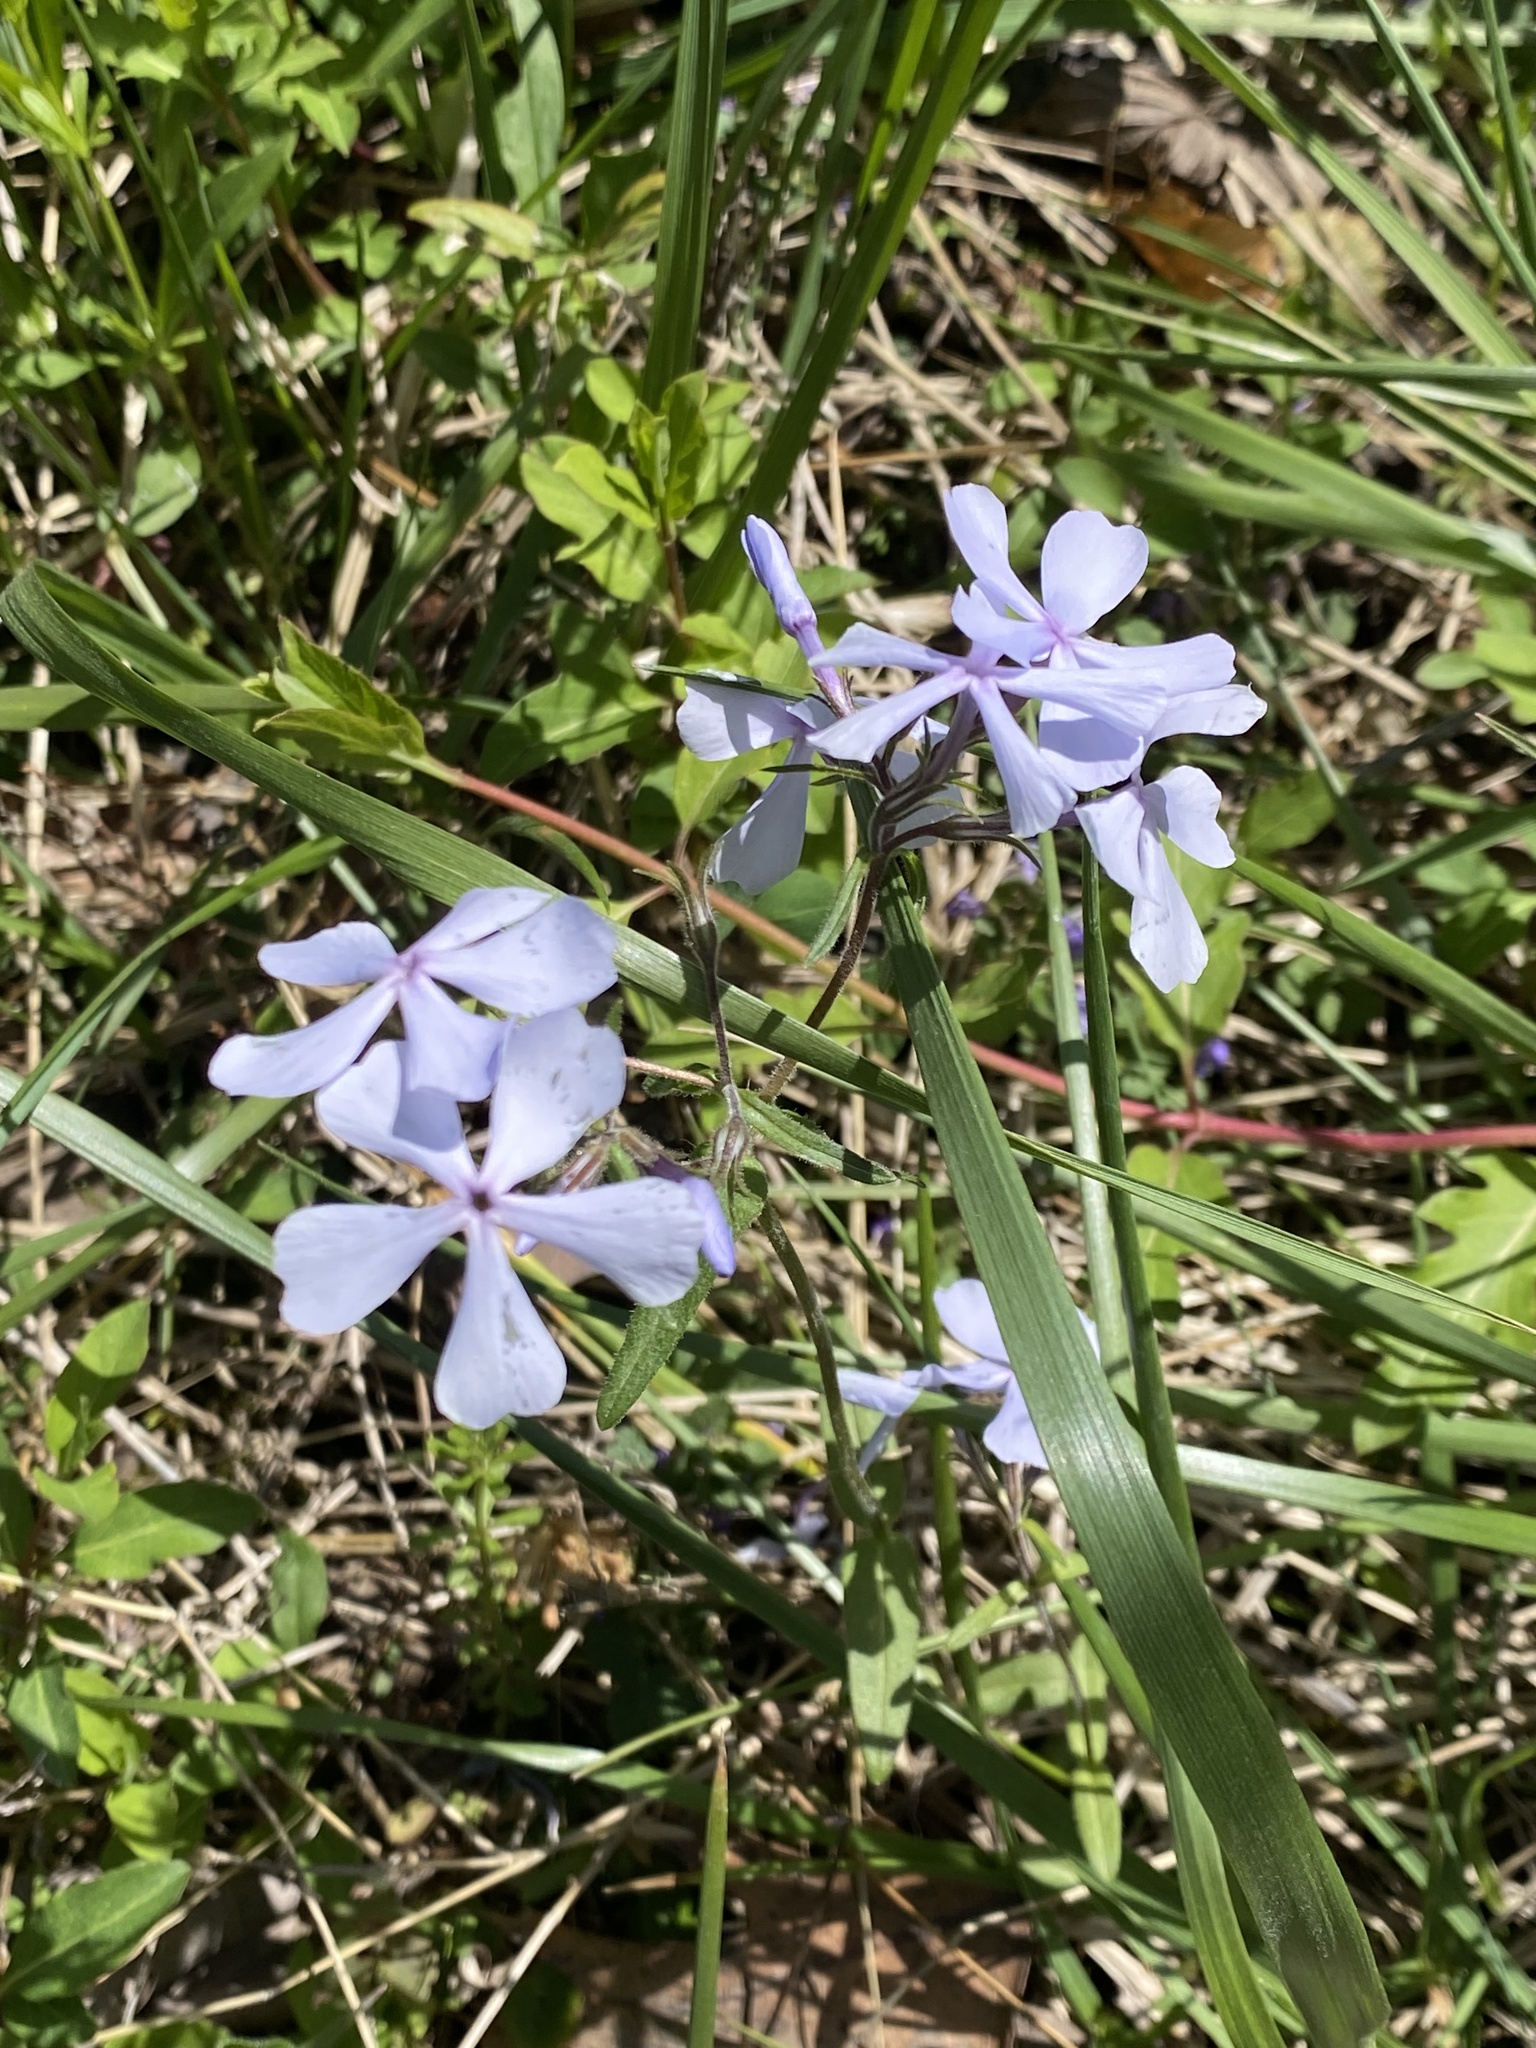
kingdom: Plantae
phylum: Tracheophyta
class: Magnoliopsida
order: Ericales
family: Polemoniaceae
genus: Phlox
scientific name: Phlox divaricata
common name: Blue phlox
